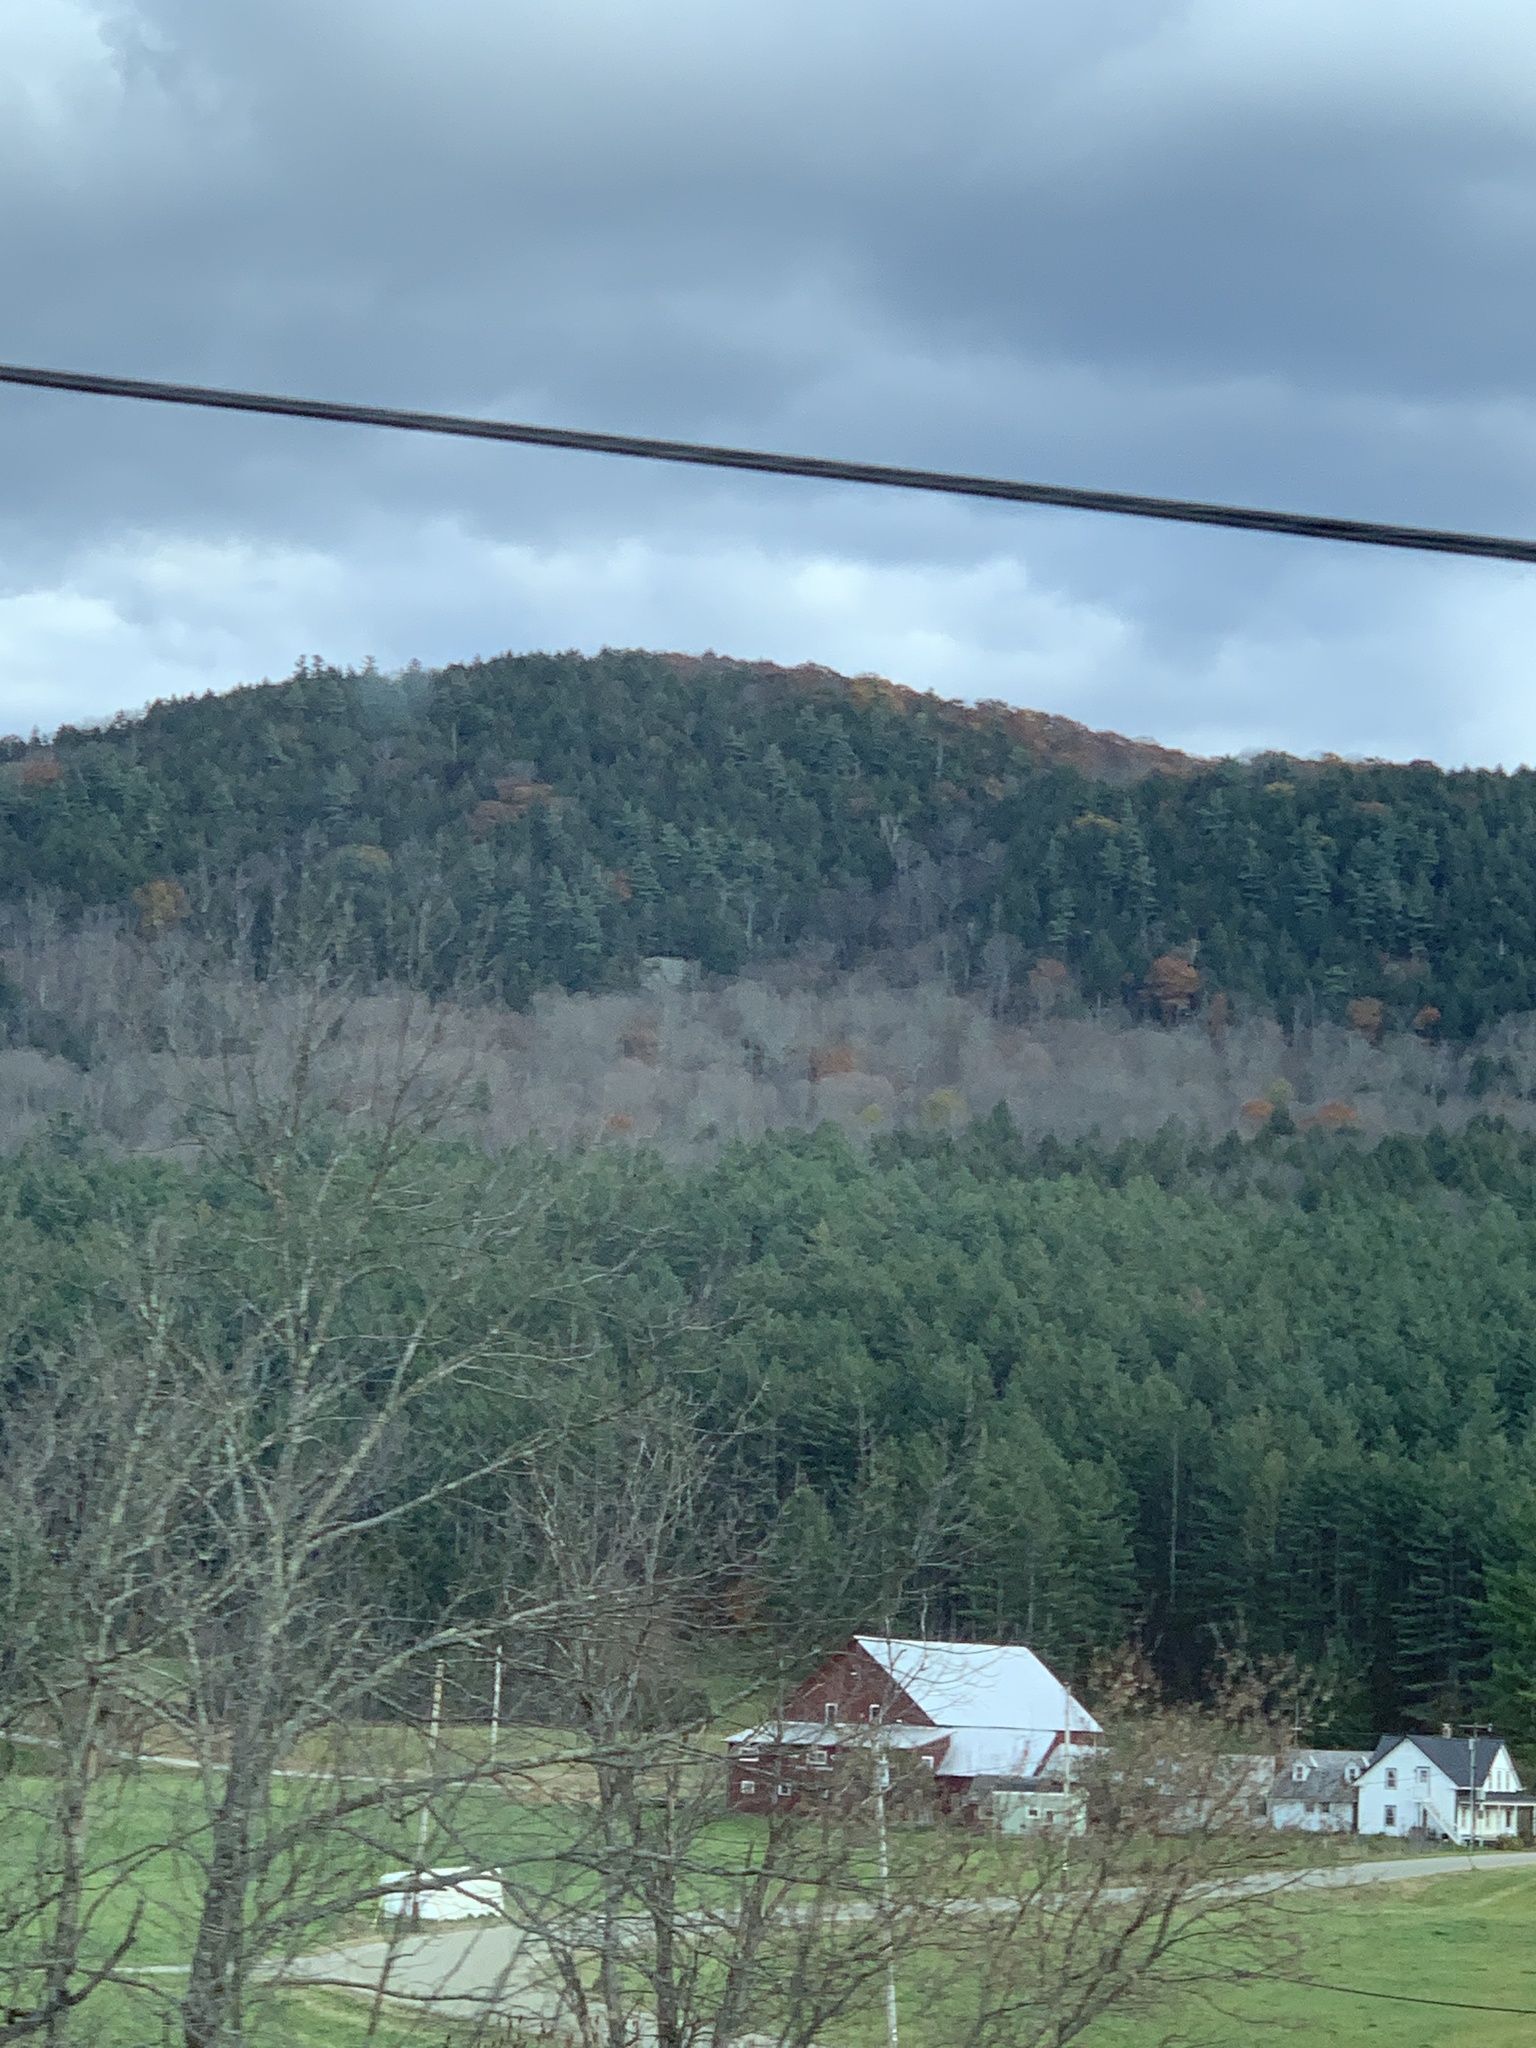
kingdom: Plantae
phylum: Tracheophyta
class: Magnoliopsida
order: Fagales
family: Fagaceae
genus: Quercus
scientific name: Quercus rubra
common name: Red oak
